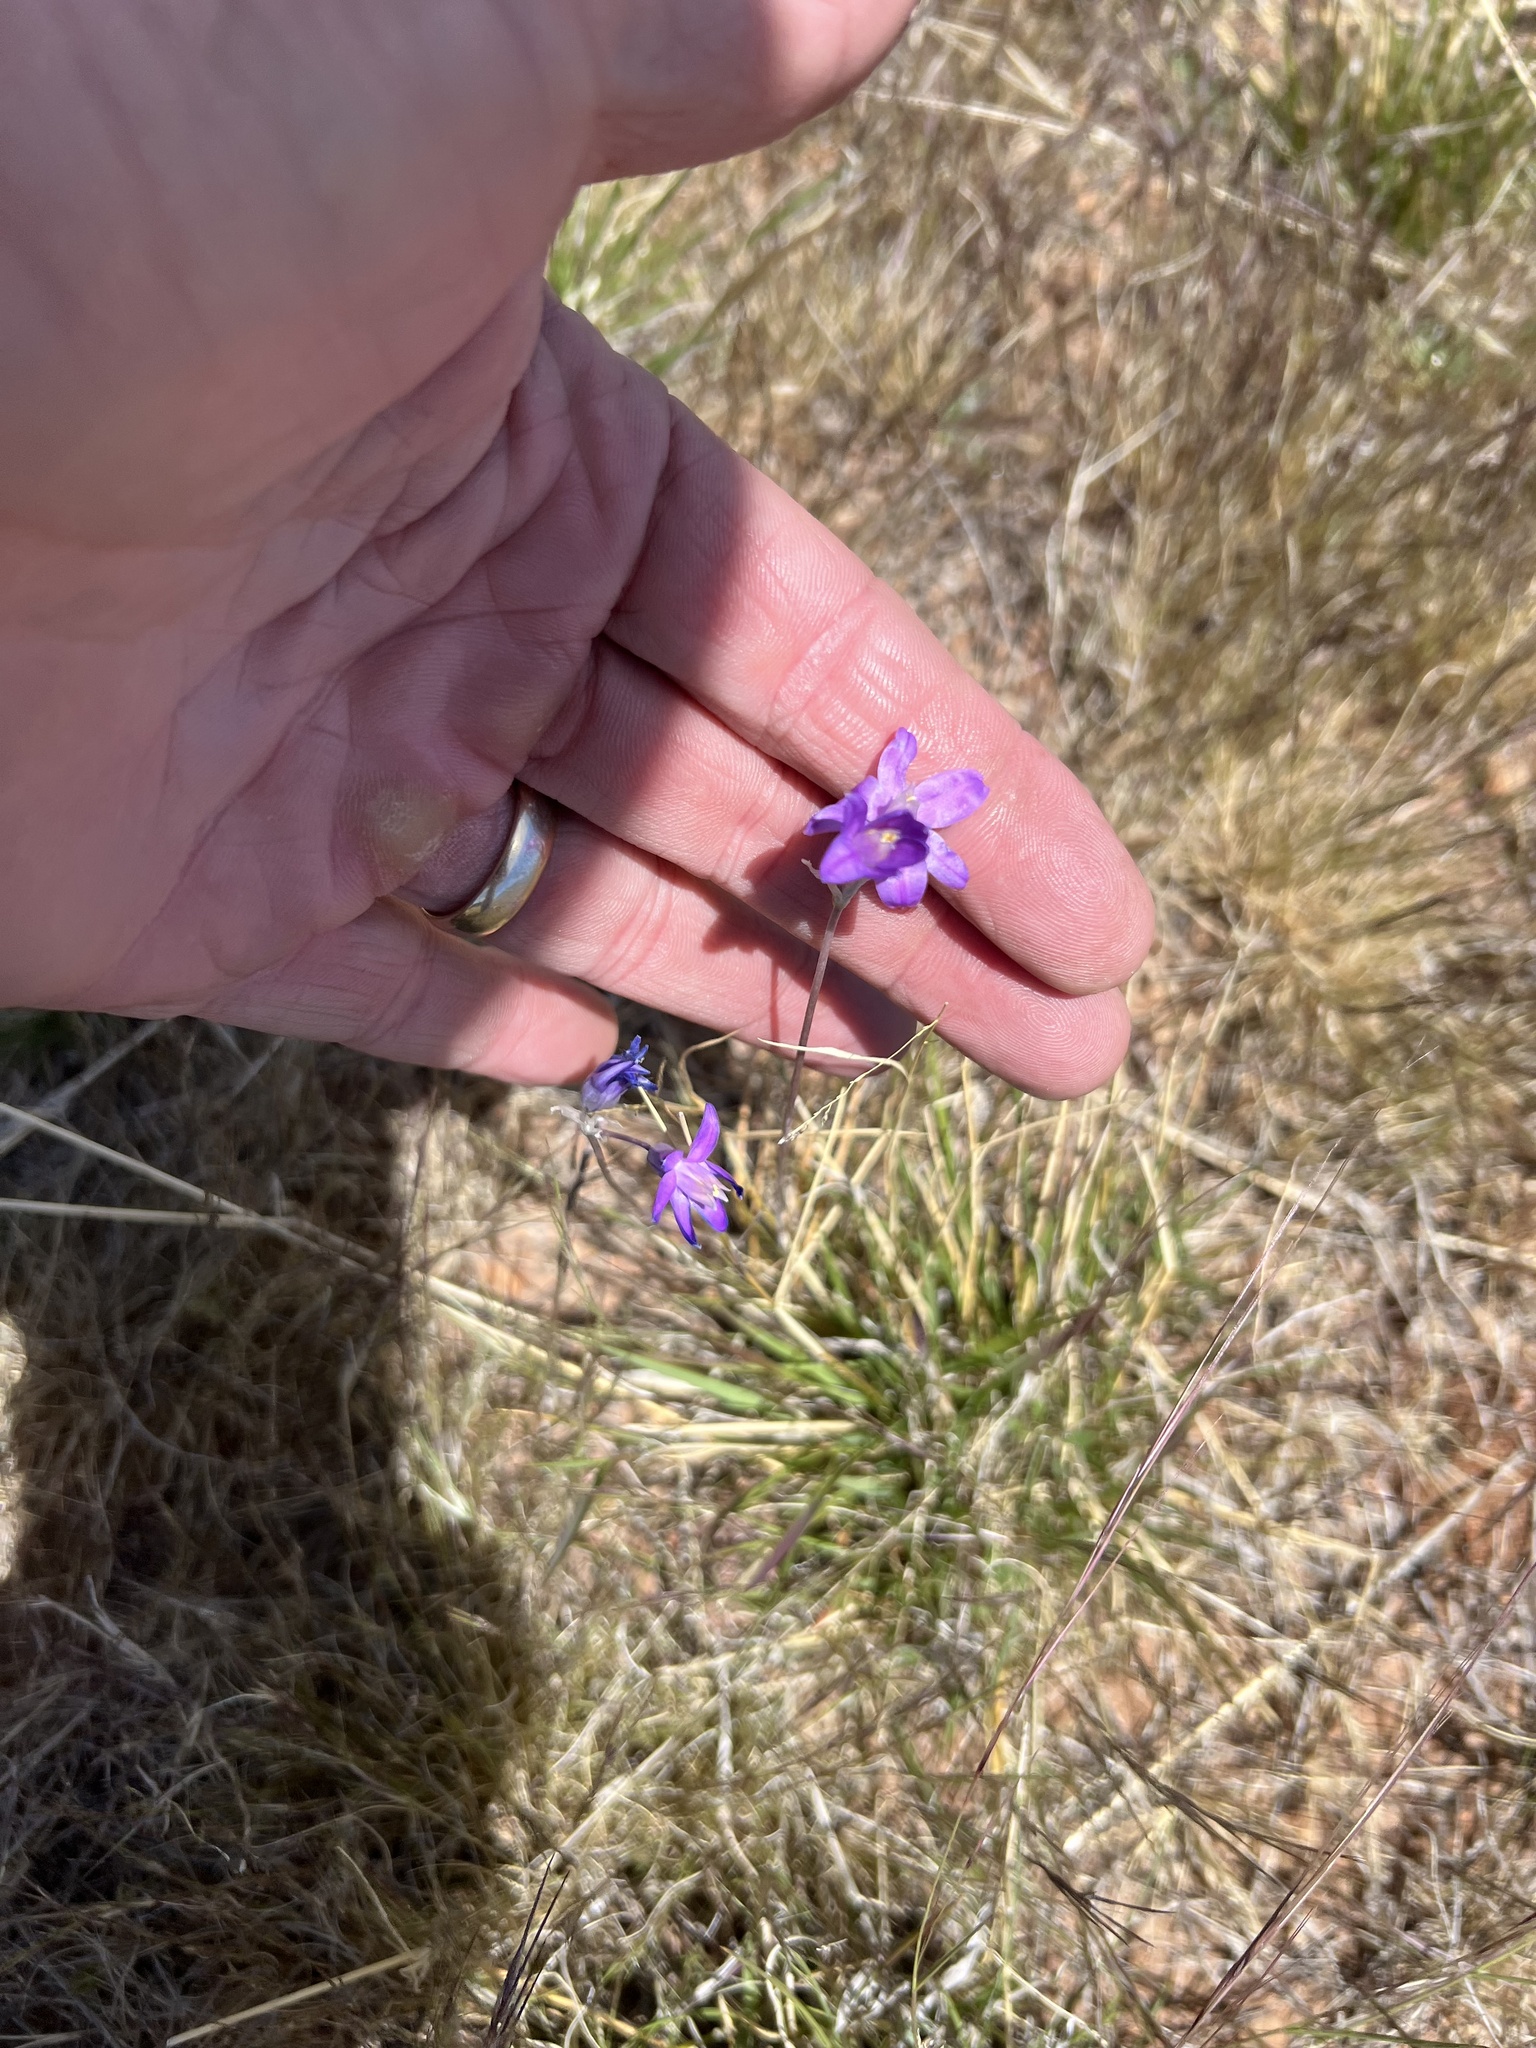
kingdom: Plantae
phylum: Tracheophyta
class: Liliopsida
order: Asparagales
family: Asparagaceae
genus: Dipterostemon
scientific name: Dipterostemon capitatus
